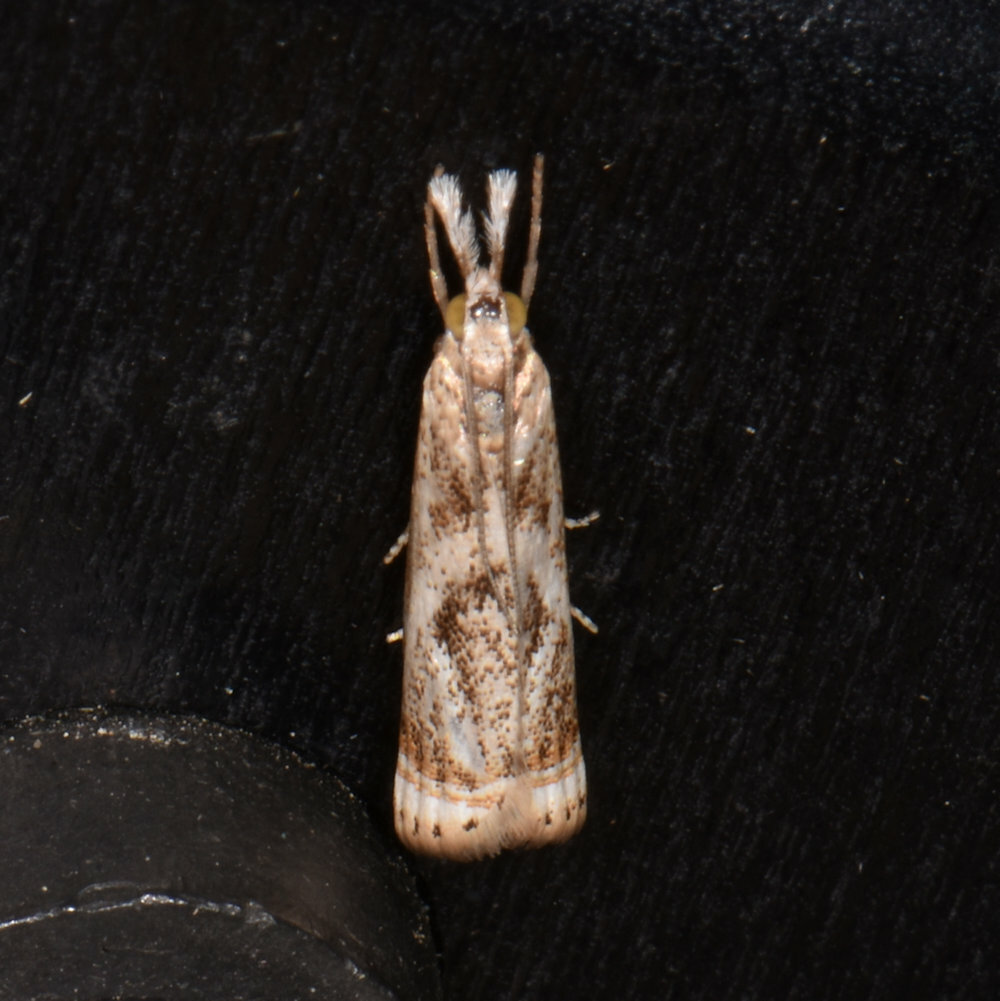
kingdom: Animalia
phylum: Arthropoda
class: Insecta
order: Lepidoptera
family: Crambidae
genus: Microcrambus
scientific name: Microcrambus elegans
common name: Elegant grass-veneer
